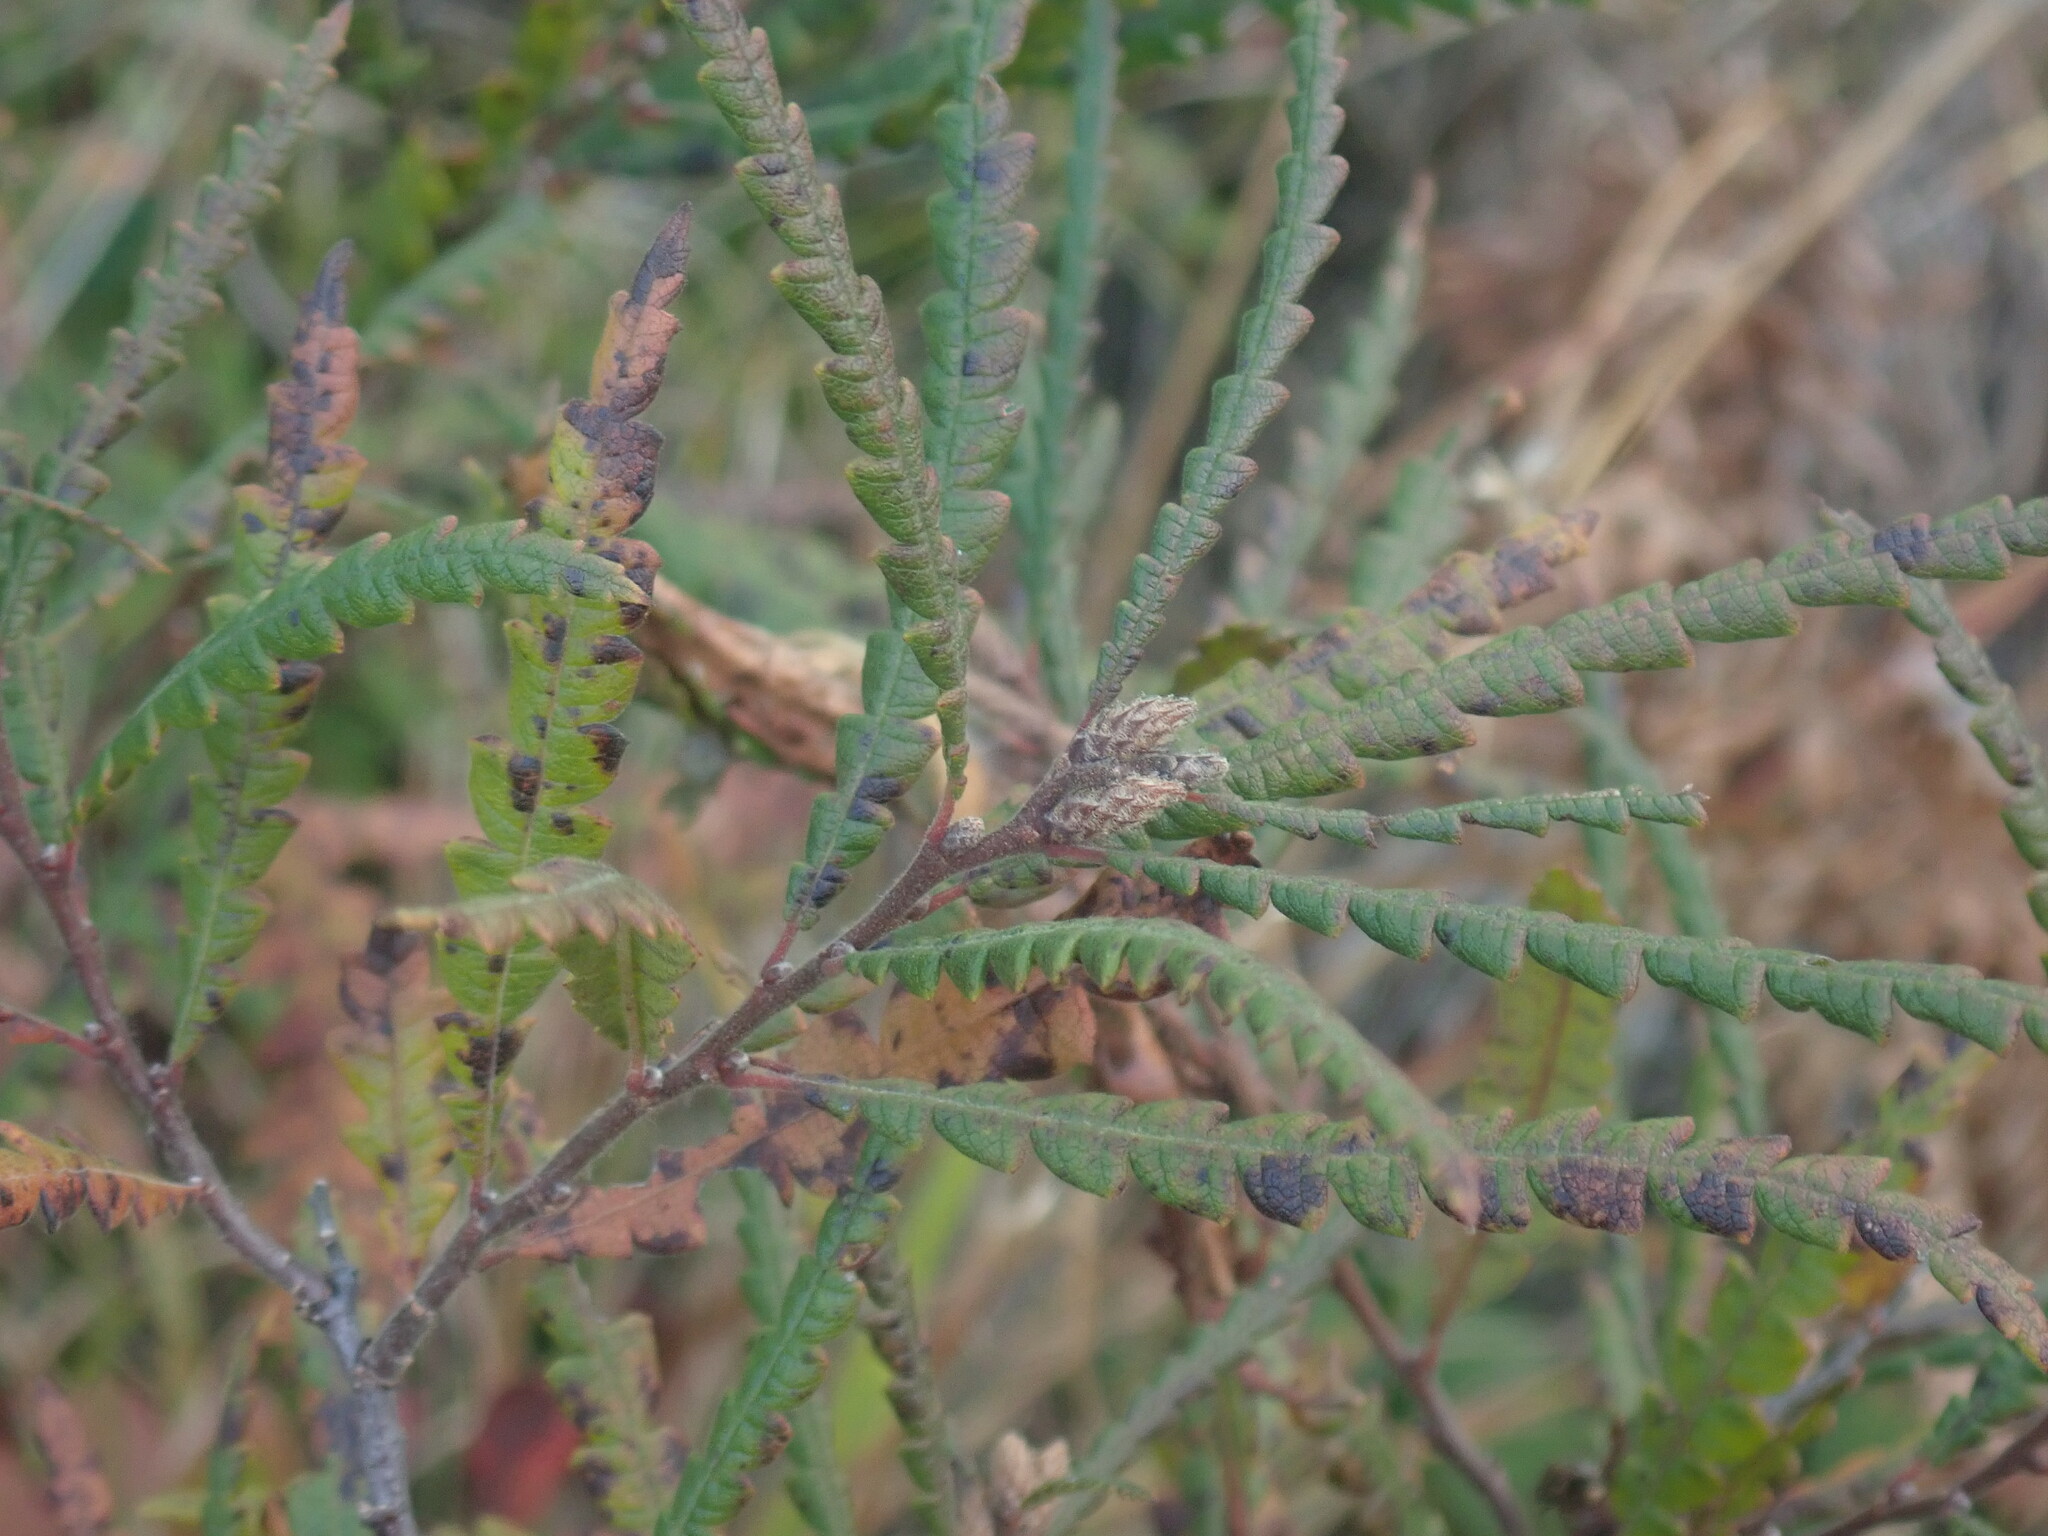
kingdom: Plantae
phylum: Tracheophyta
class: Magnoliopsida
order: Fagales
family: Myricaceae
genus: Comptonia
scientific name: Comptonia peregrina
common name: Sweet-fern
